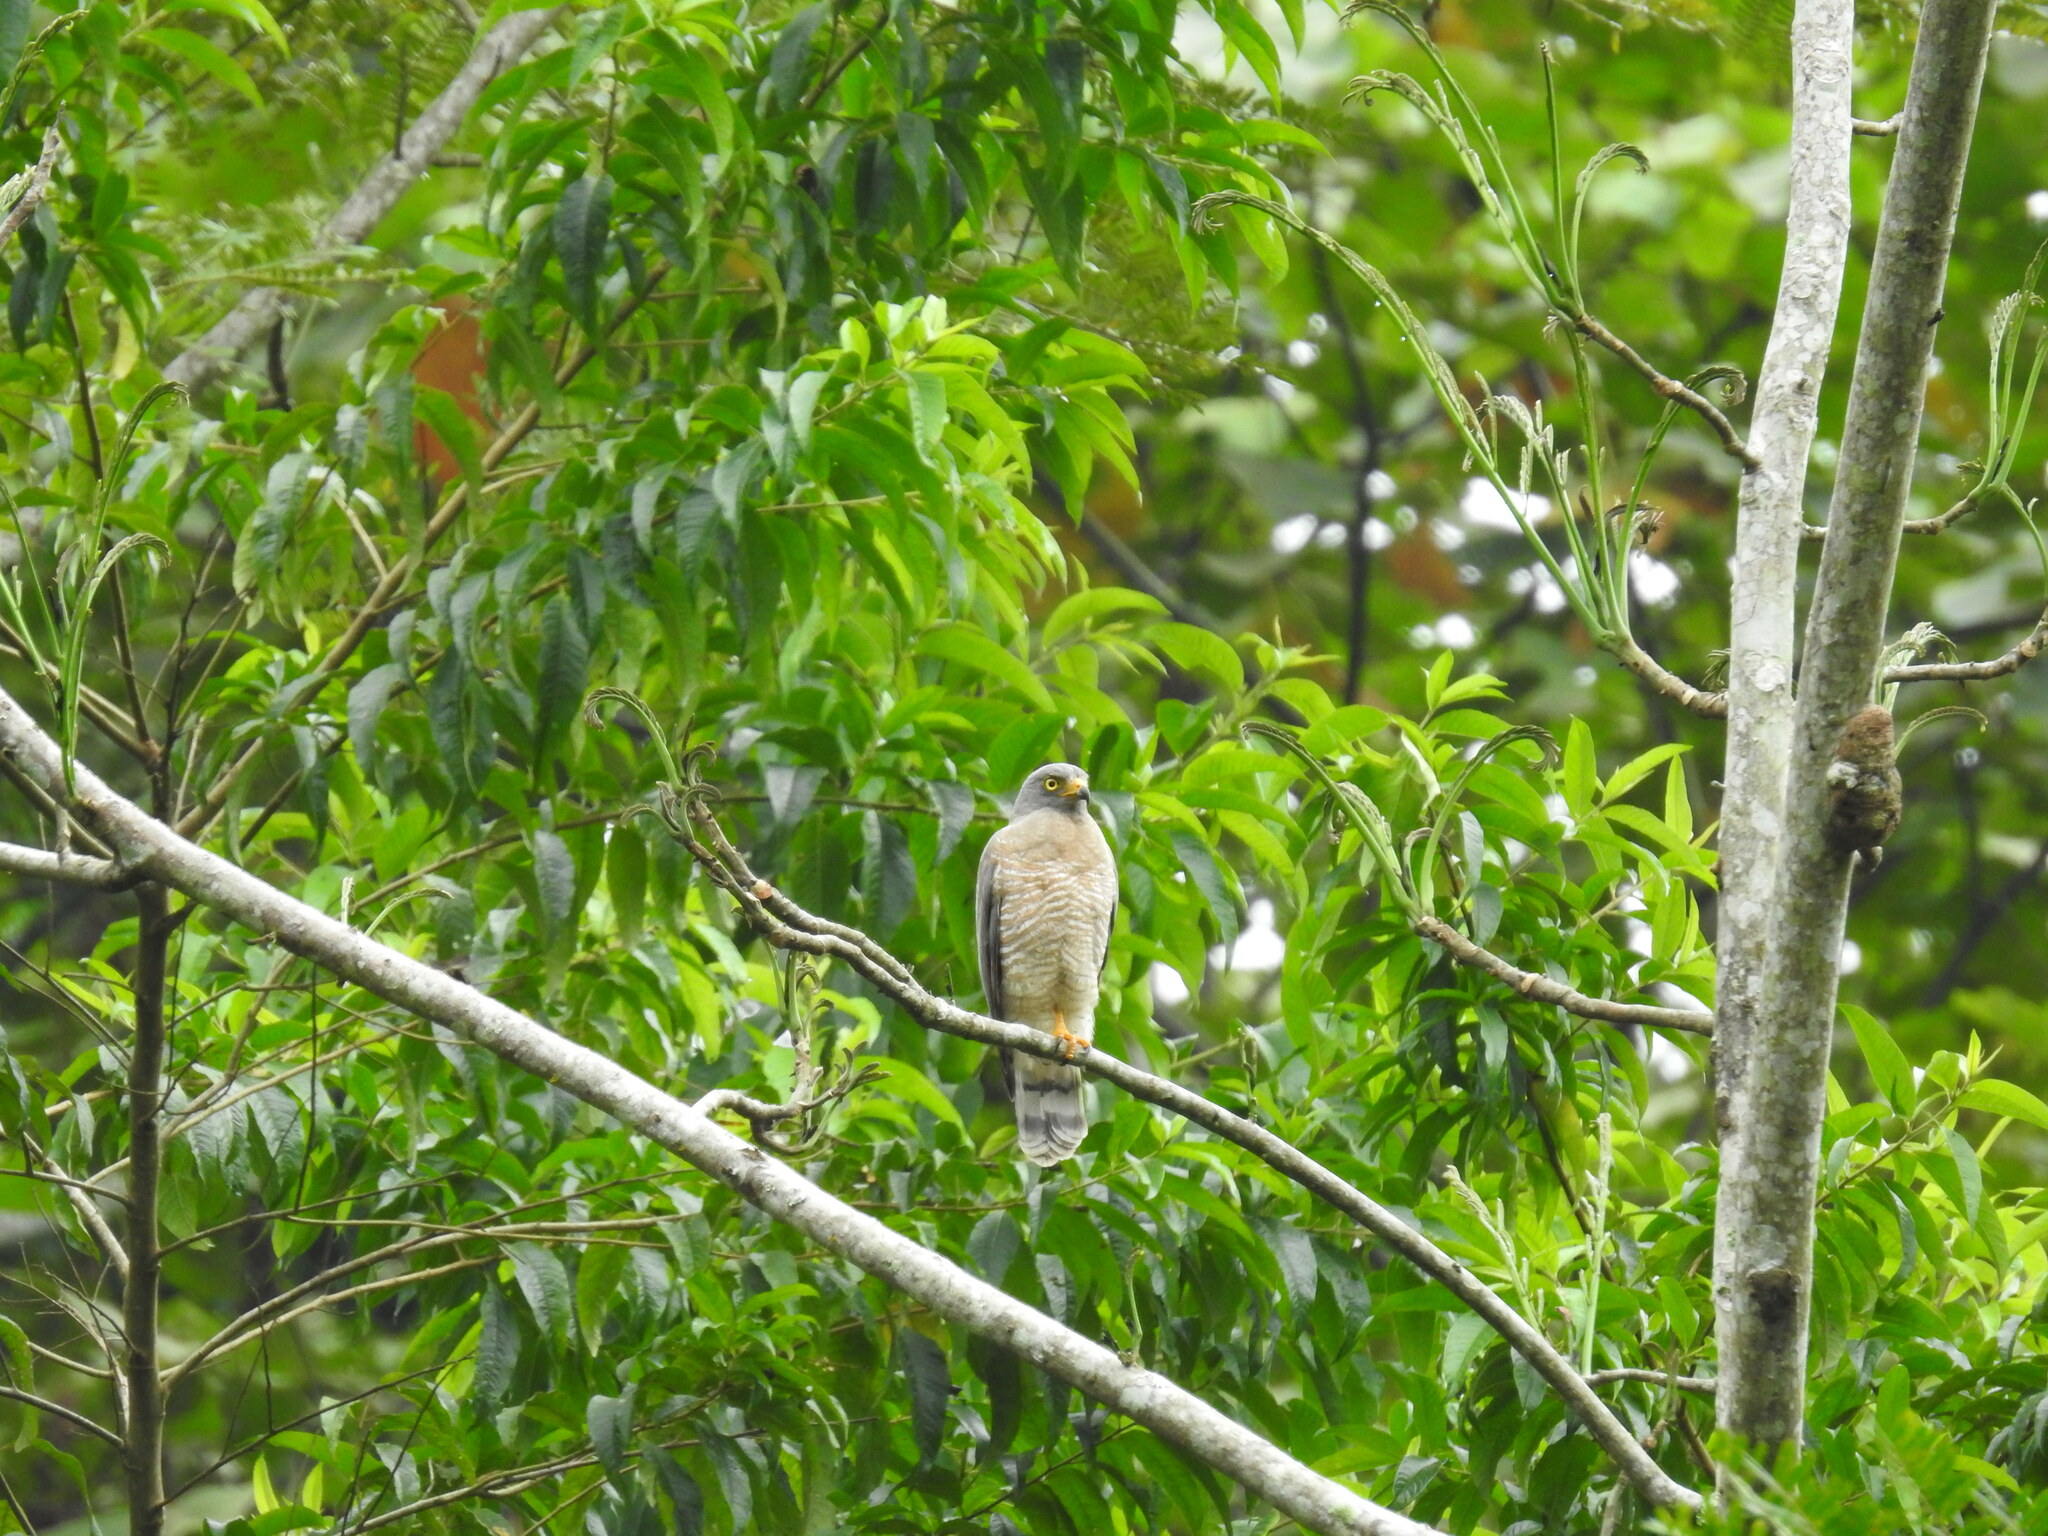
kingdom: Animalia
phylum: Chordata
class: Aves
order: Accipitriformes
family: Accipitridae
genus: Rupornis
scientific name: Rupornis magnirostris
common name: Roadside hawk
